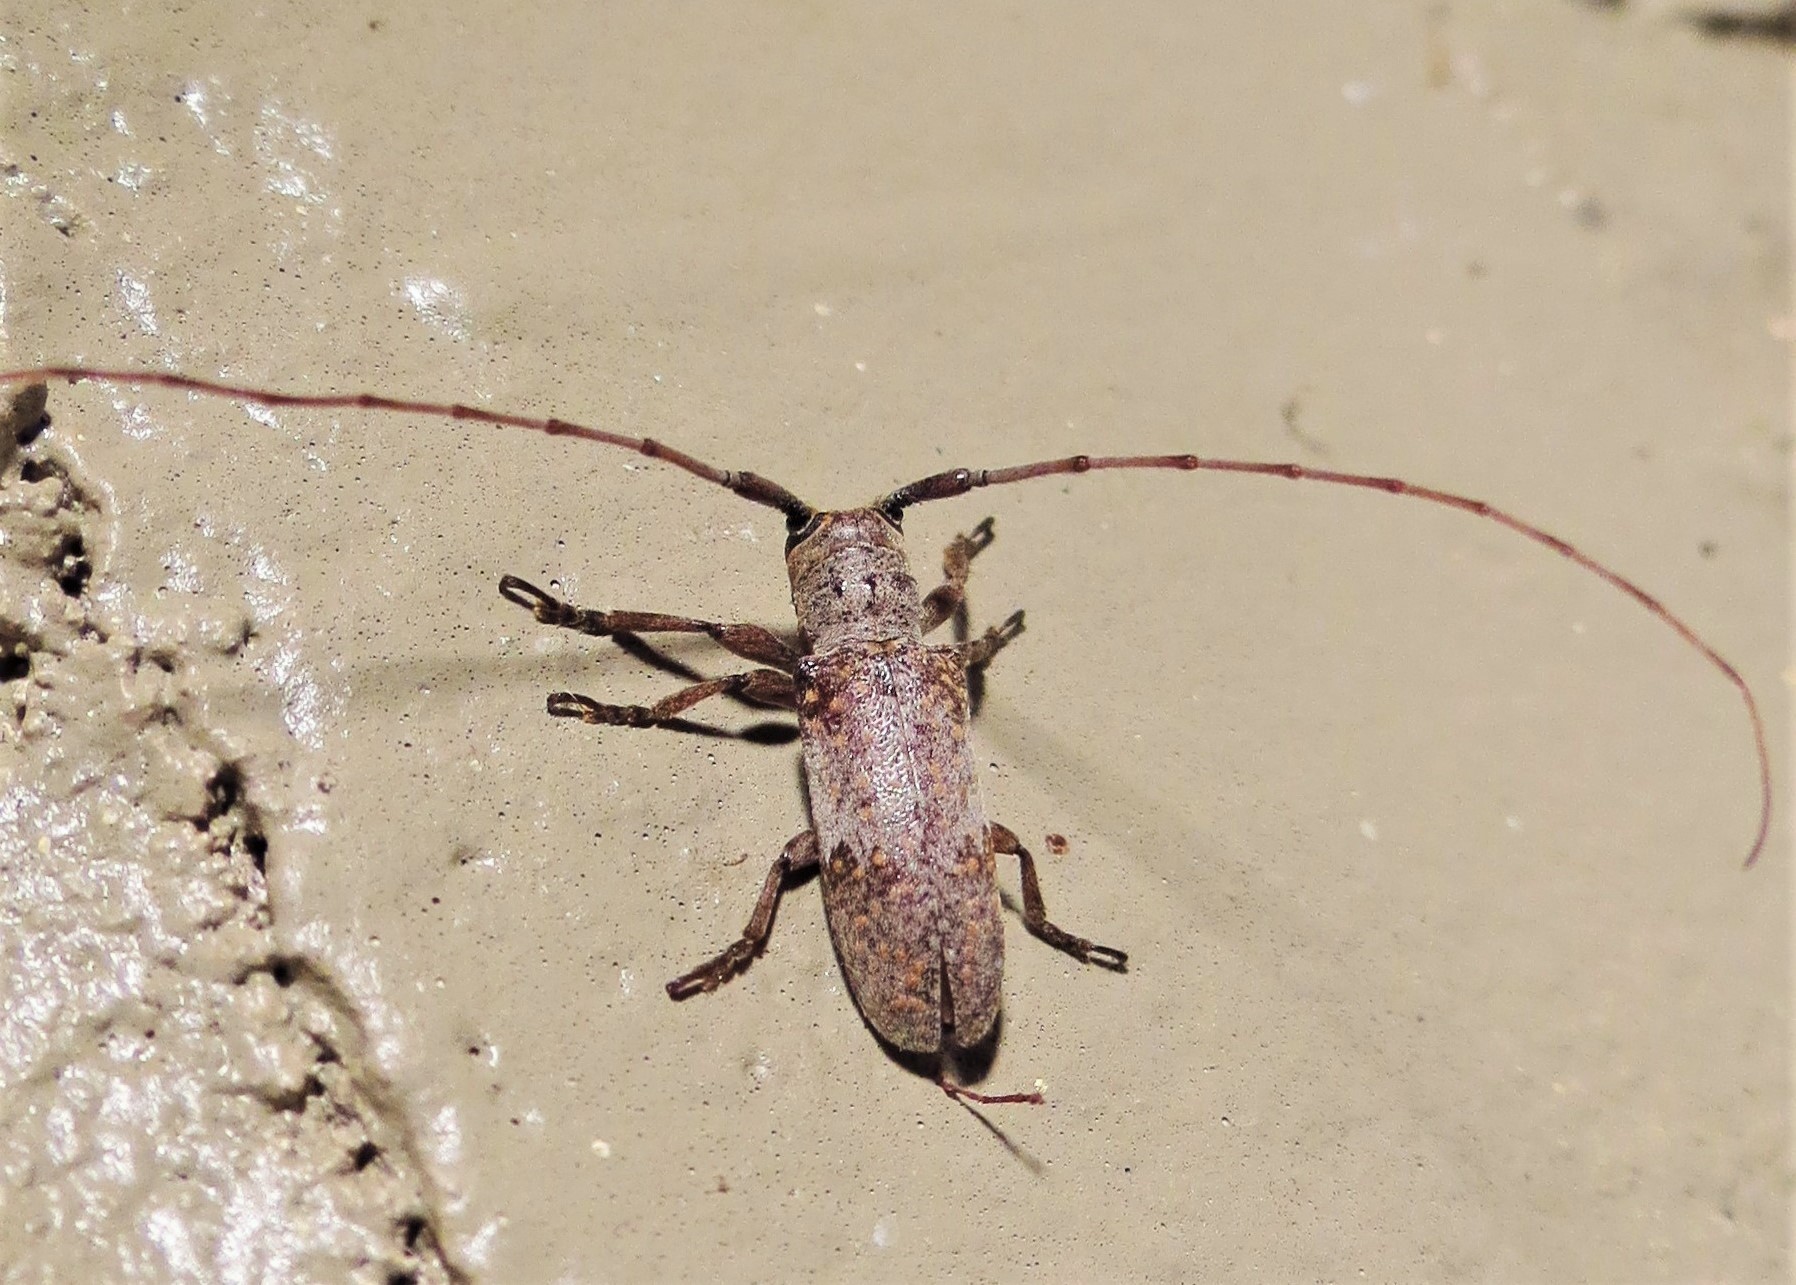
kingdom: Animalia
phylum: Arthropoda
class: Insecta
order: Coleoptera
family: Cerambycidae
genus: Oncideres
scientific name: Oncideres cingulata
